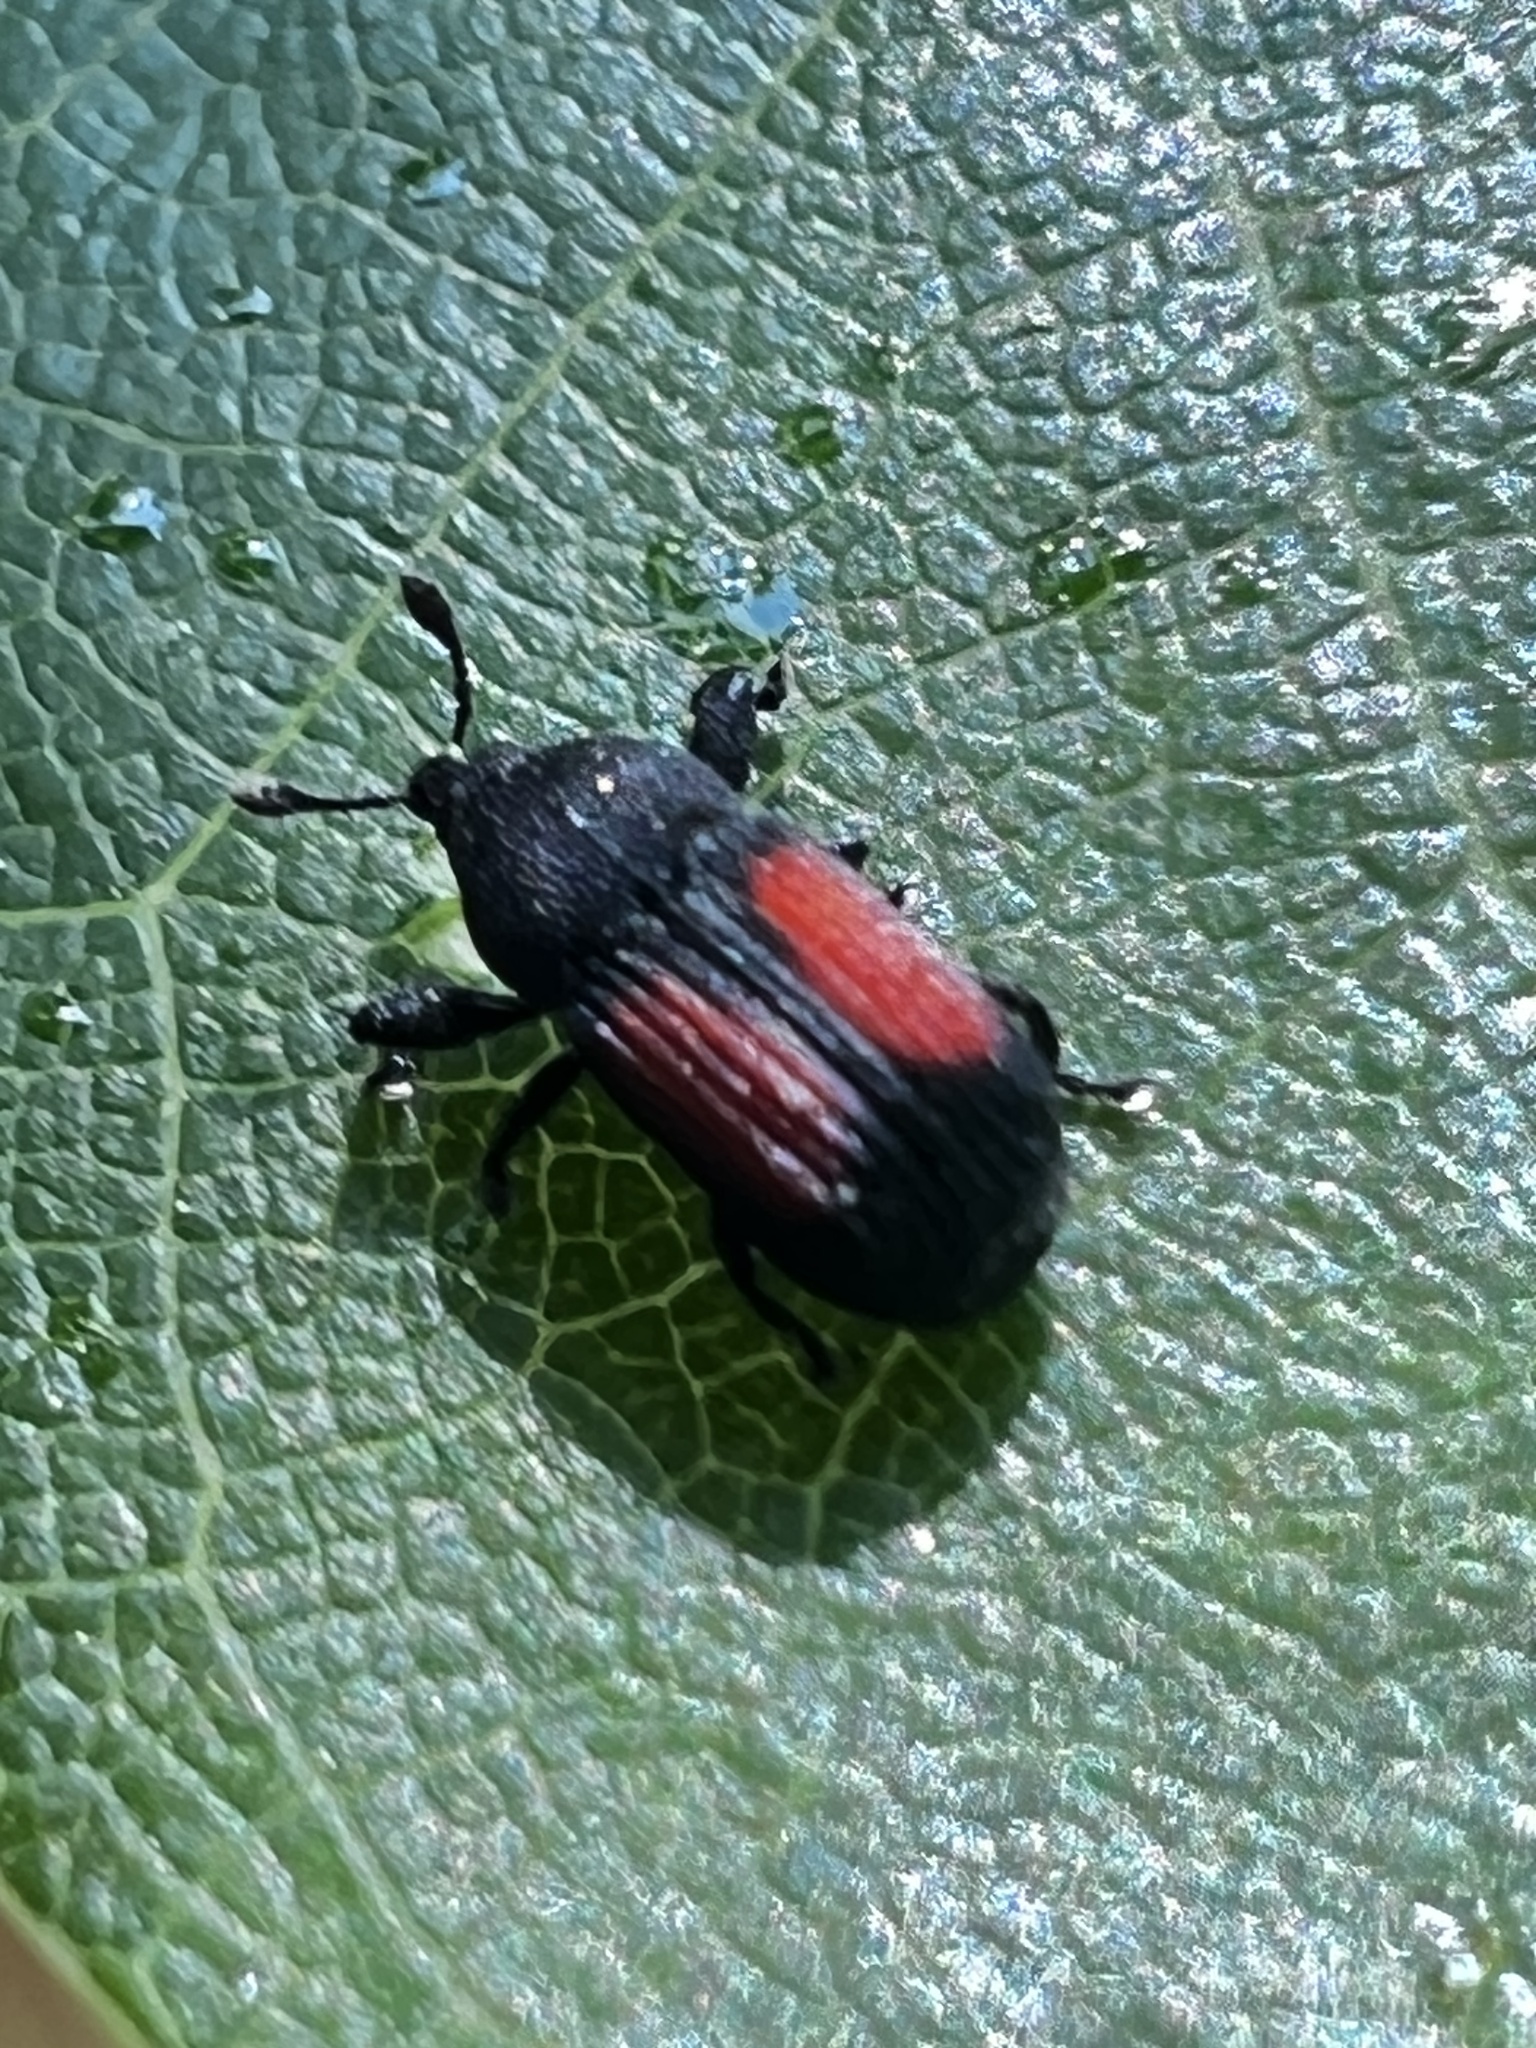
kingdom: Animalia
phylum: Arthropoda
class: Insecta
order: Coleoptera
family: Curculionidae
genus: Laemosaccus
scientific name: Laemosaccus obrieni
